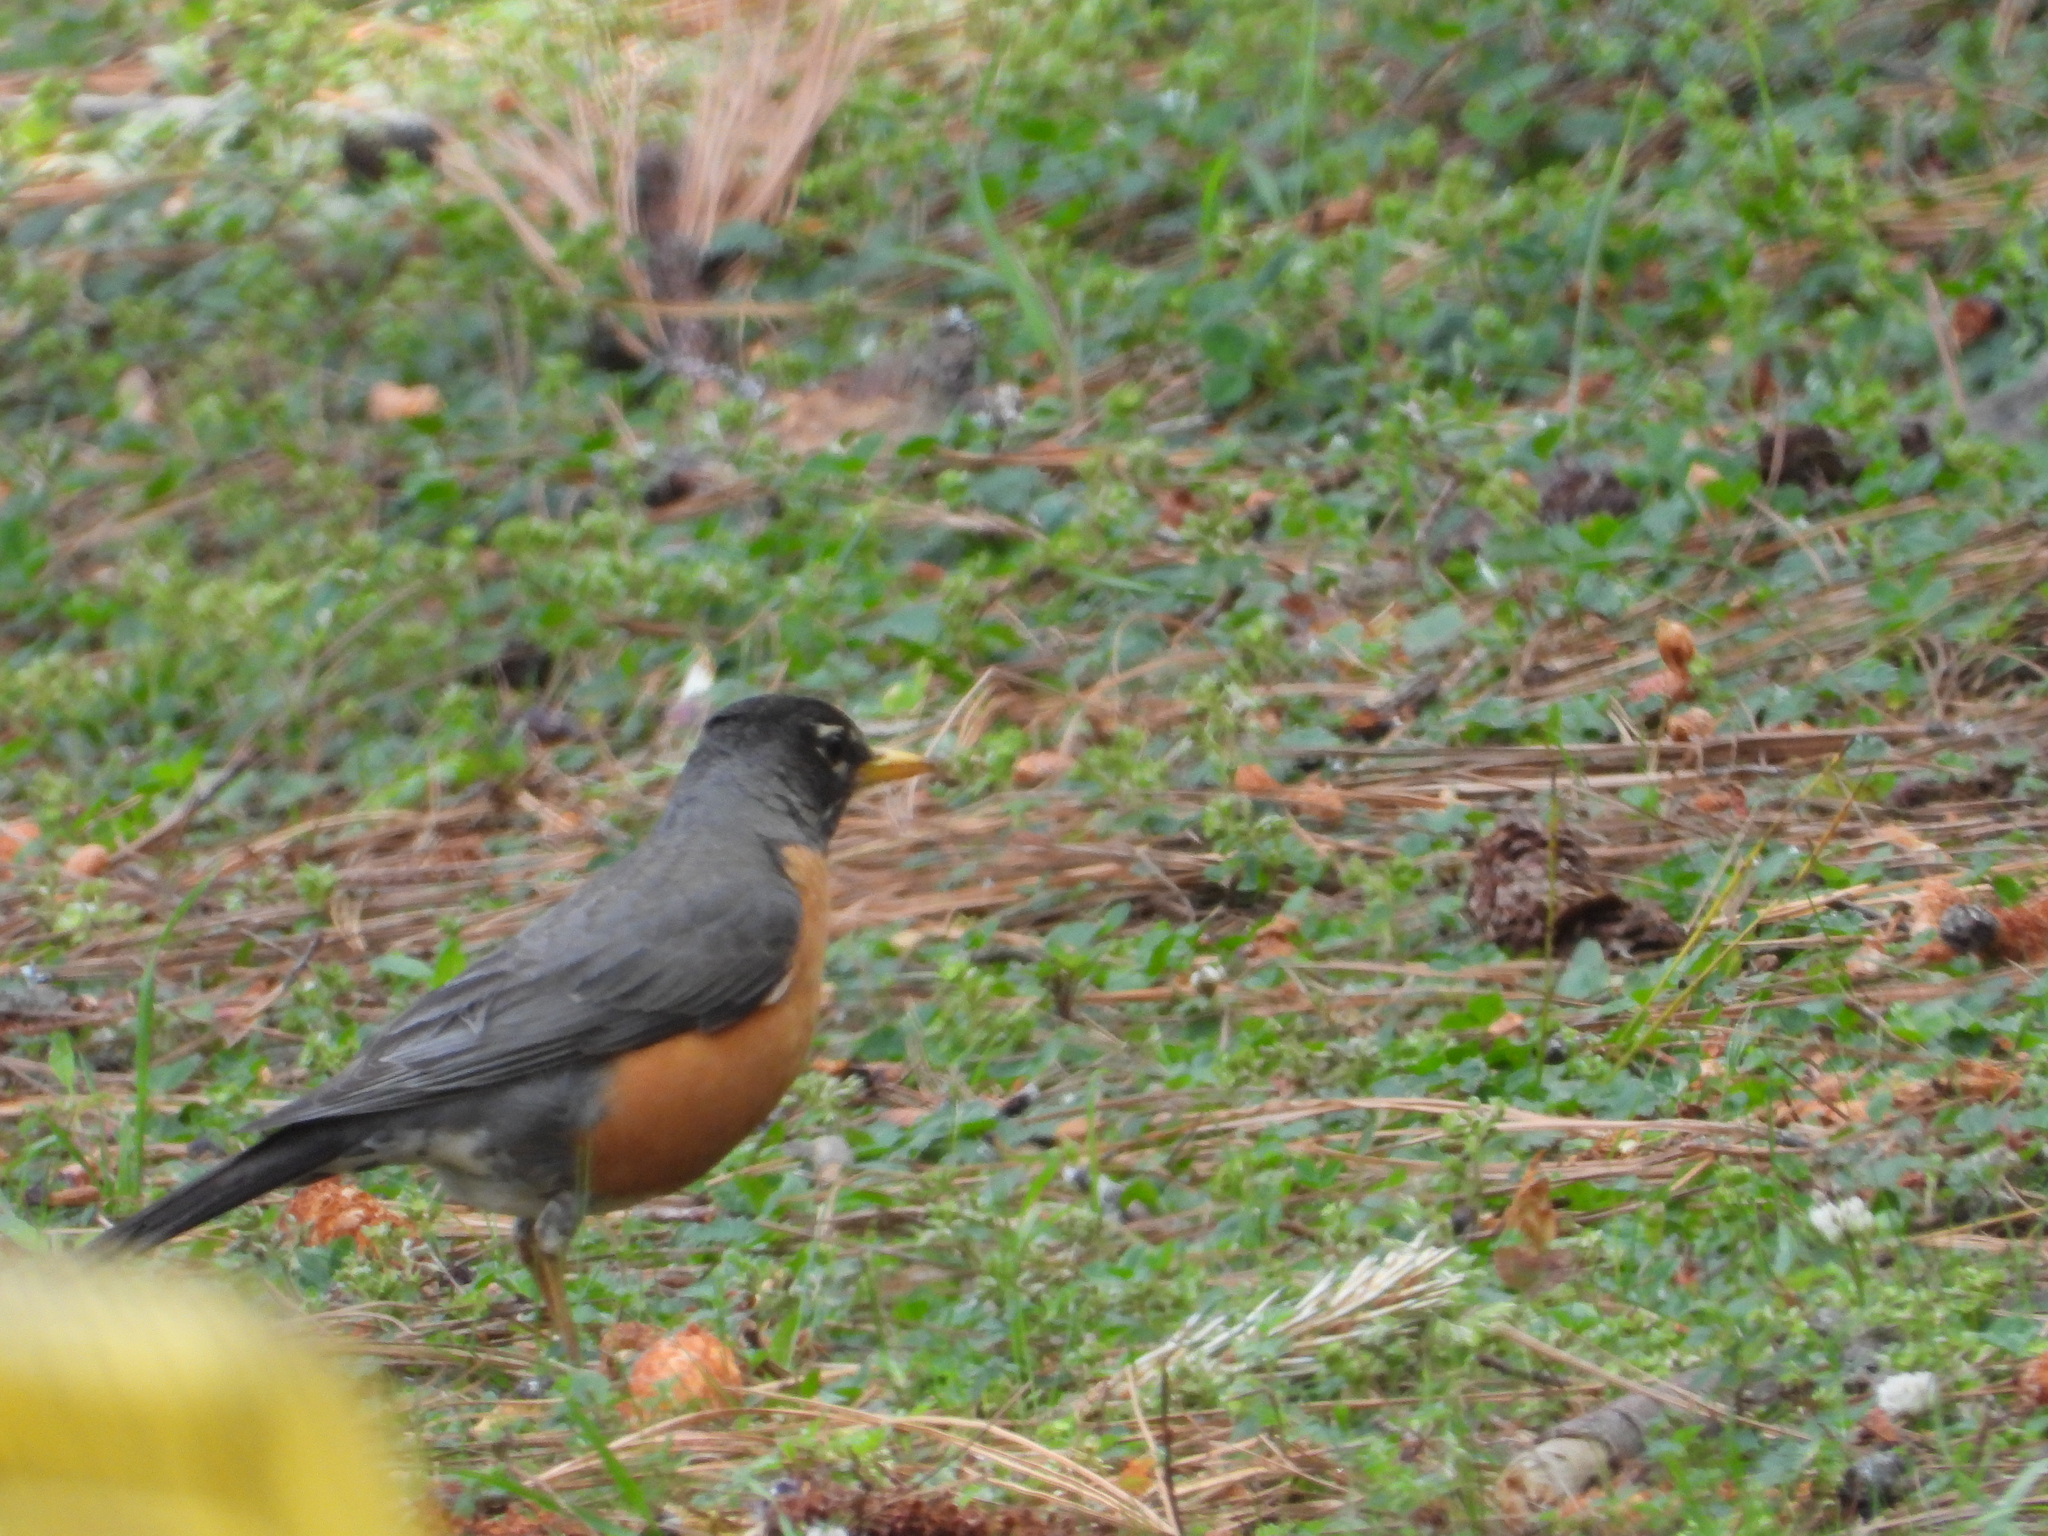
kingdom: Animalia
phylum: Chordata
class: Aves
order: Passeriformes
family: Turdidae
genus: Turdus
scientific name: Turdus migratorius
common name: American robin
